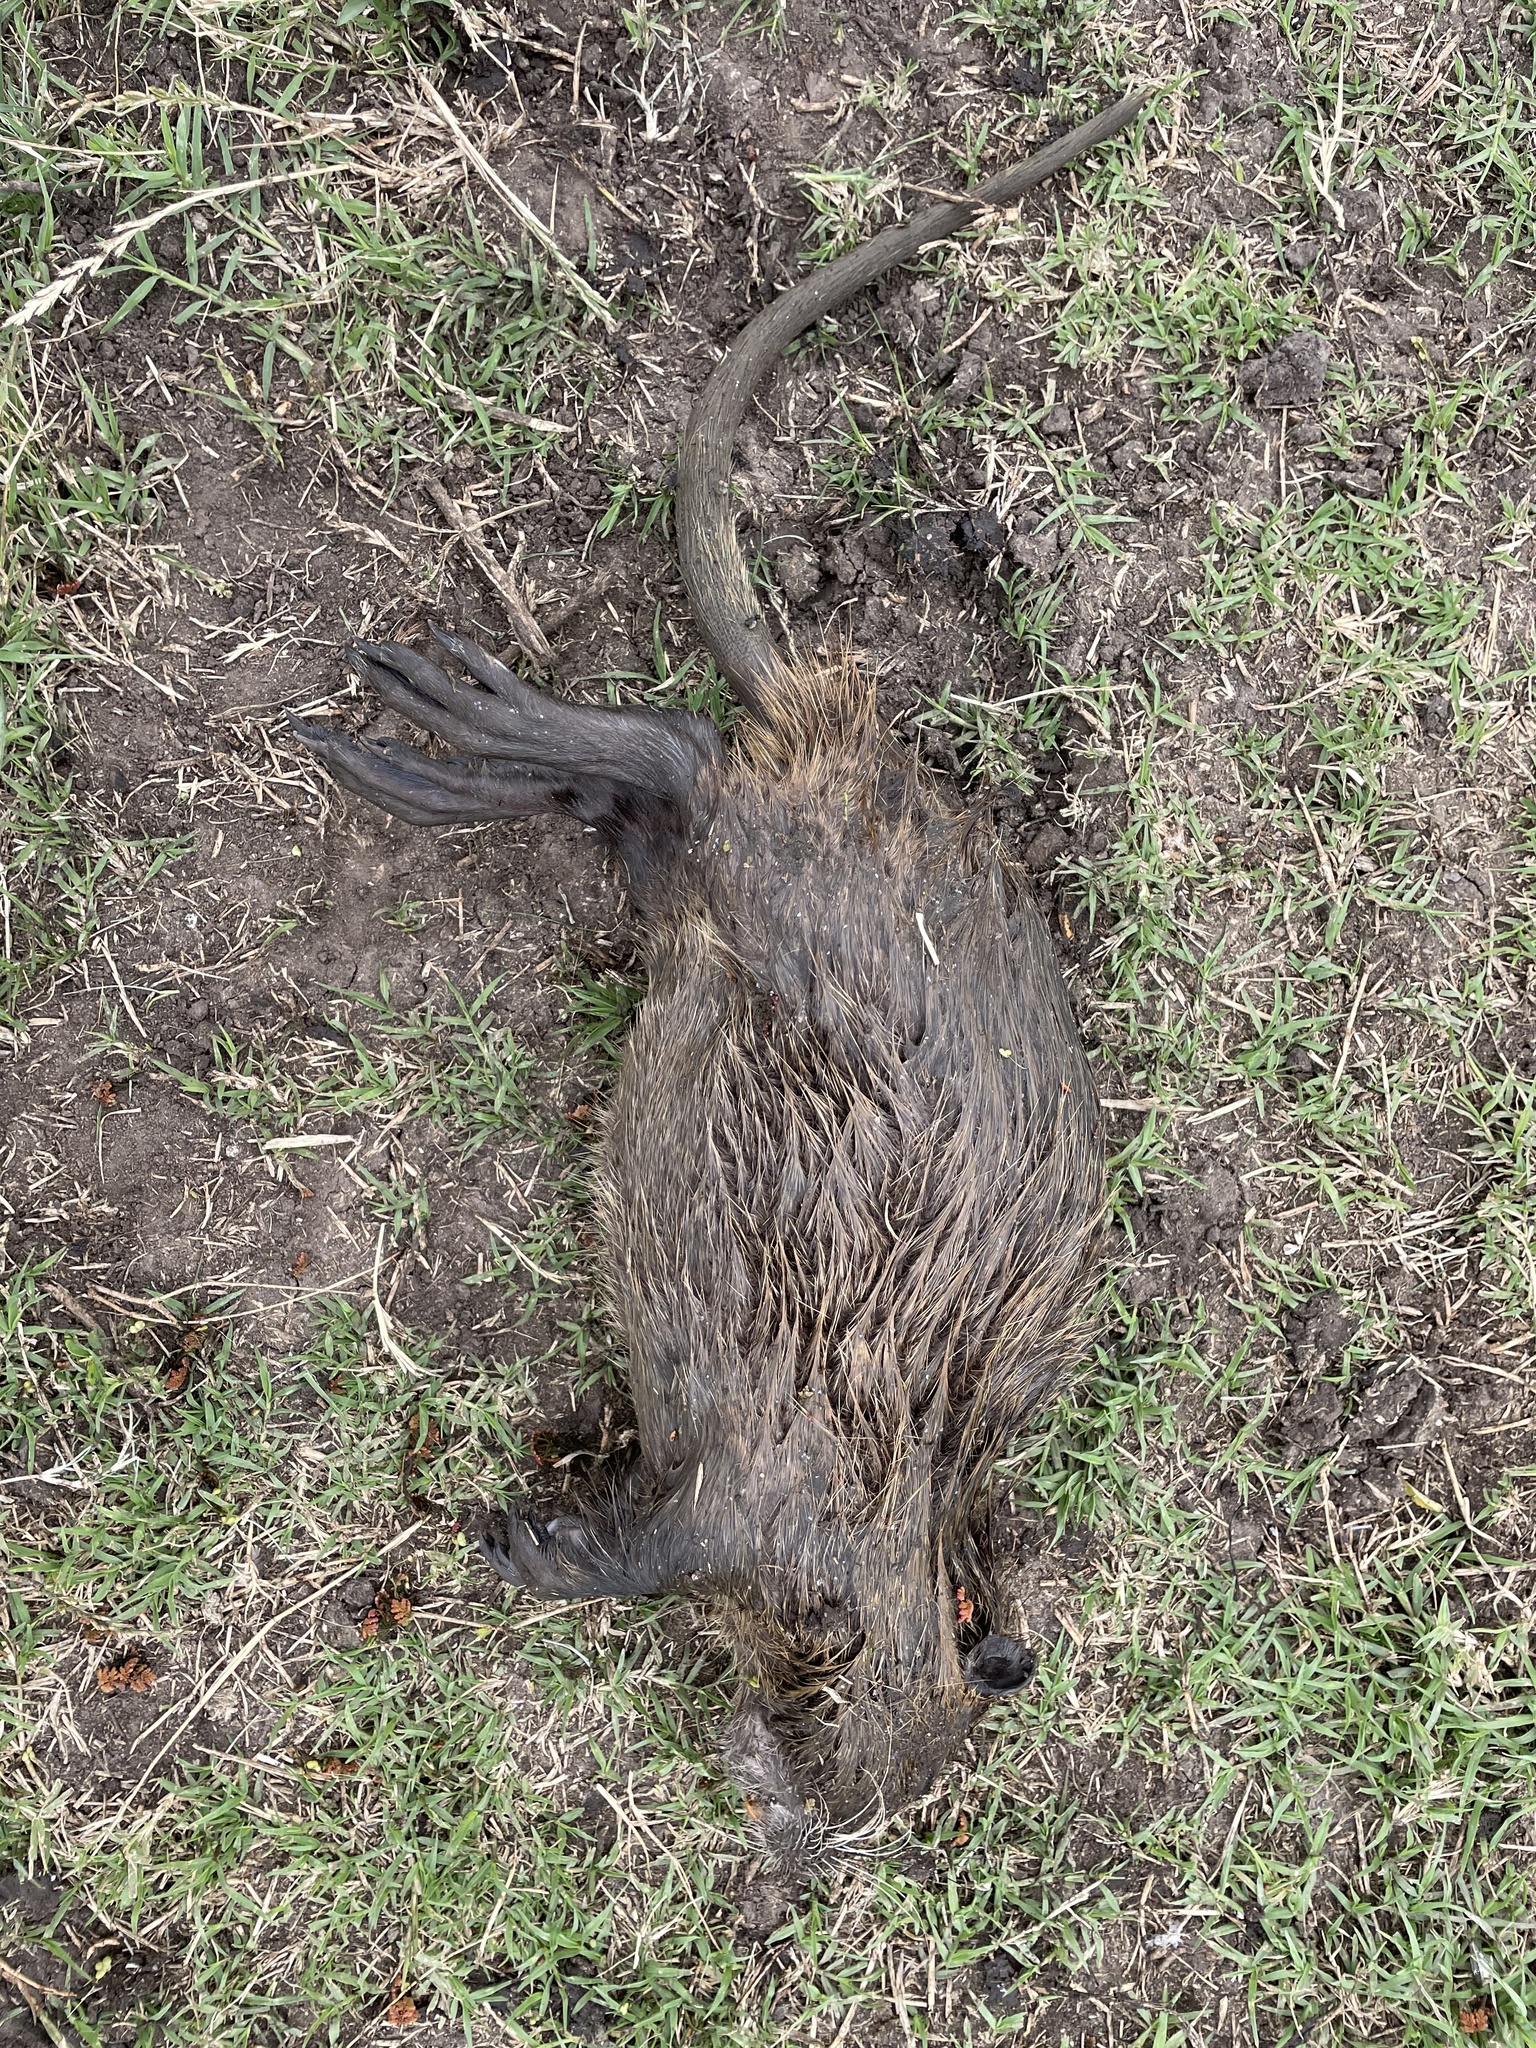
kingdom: Animalia
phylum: Chordata
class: Mammalia
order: Rodentia
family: Myocastoridae
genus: Myocastor
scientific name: Myocastor coypus
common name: Coypu
